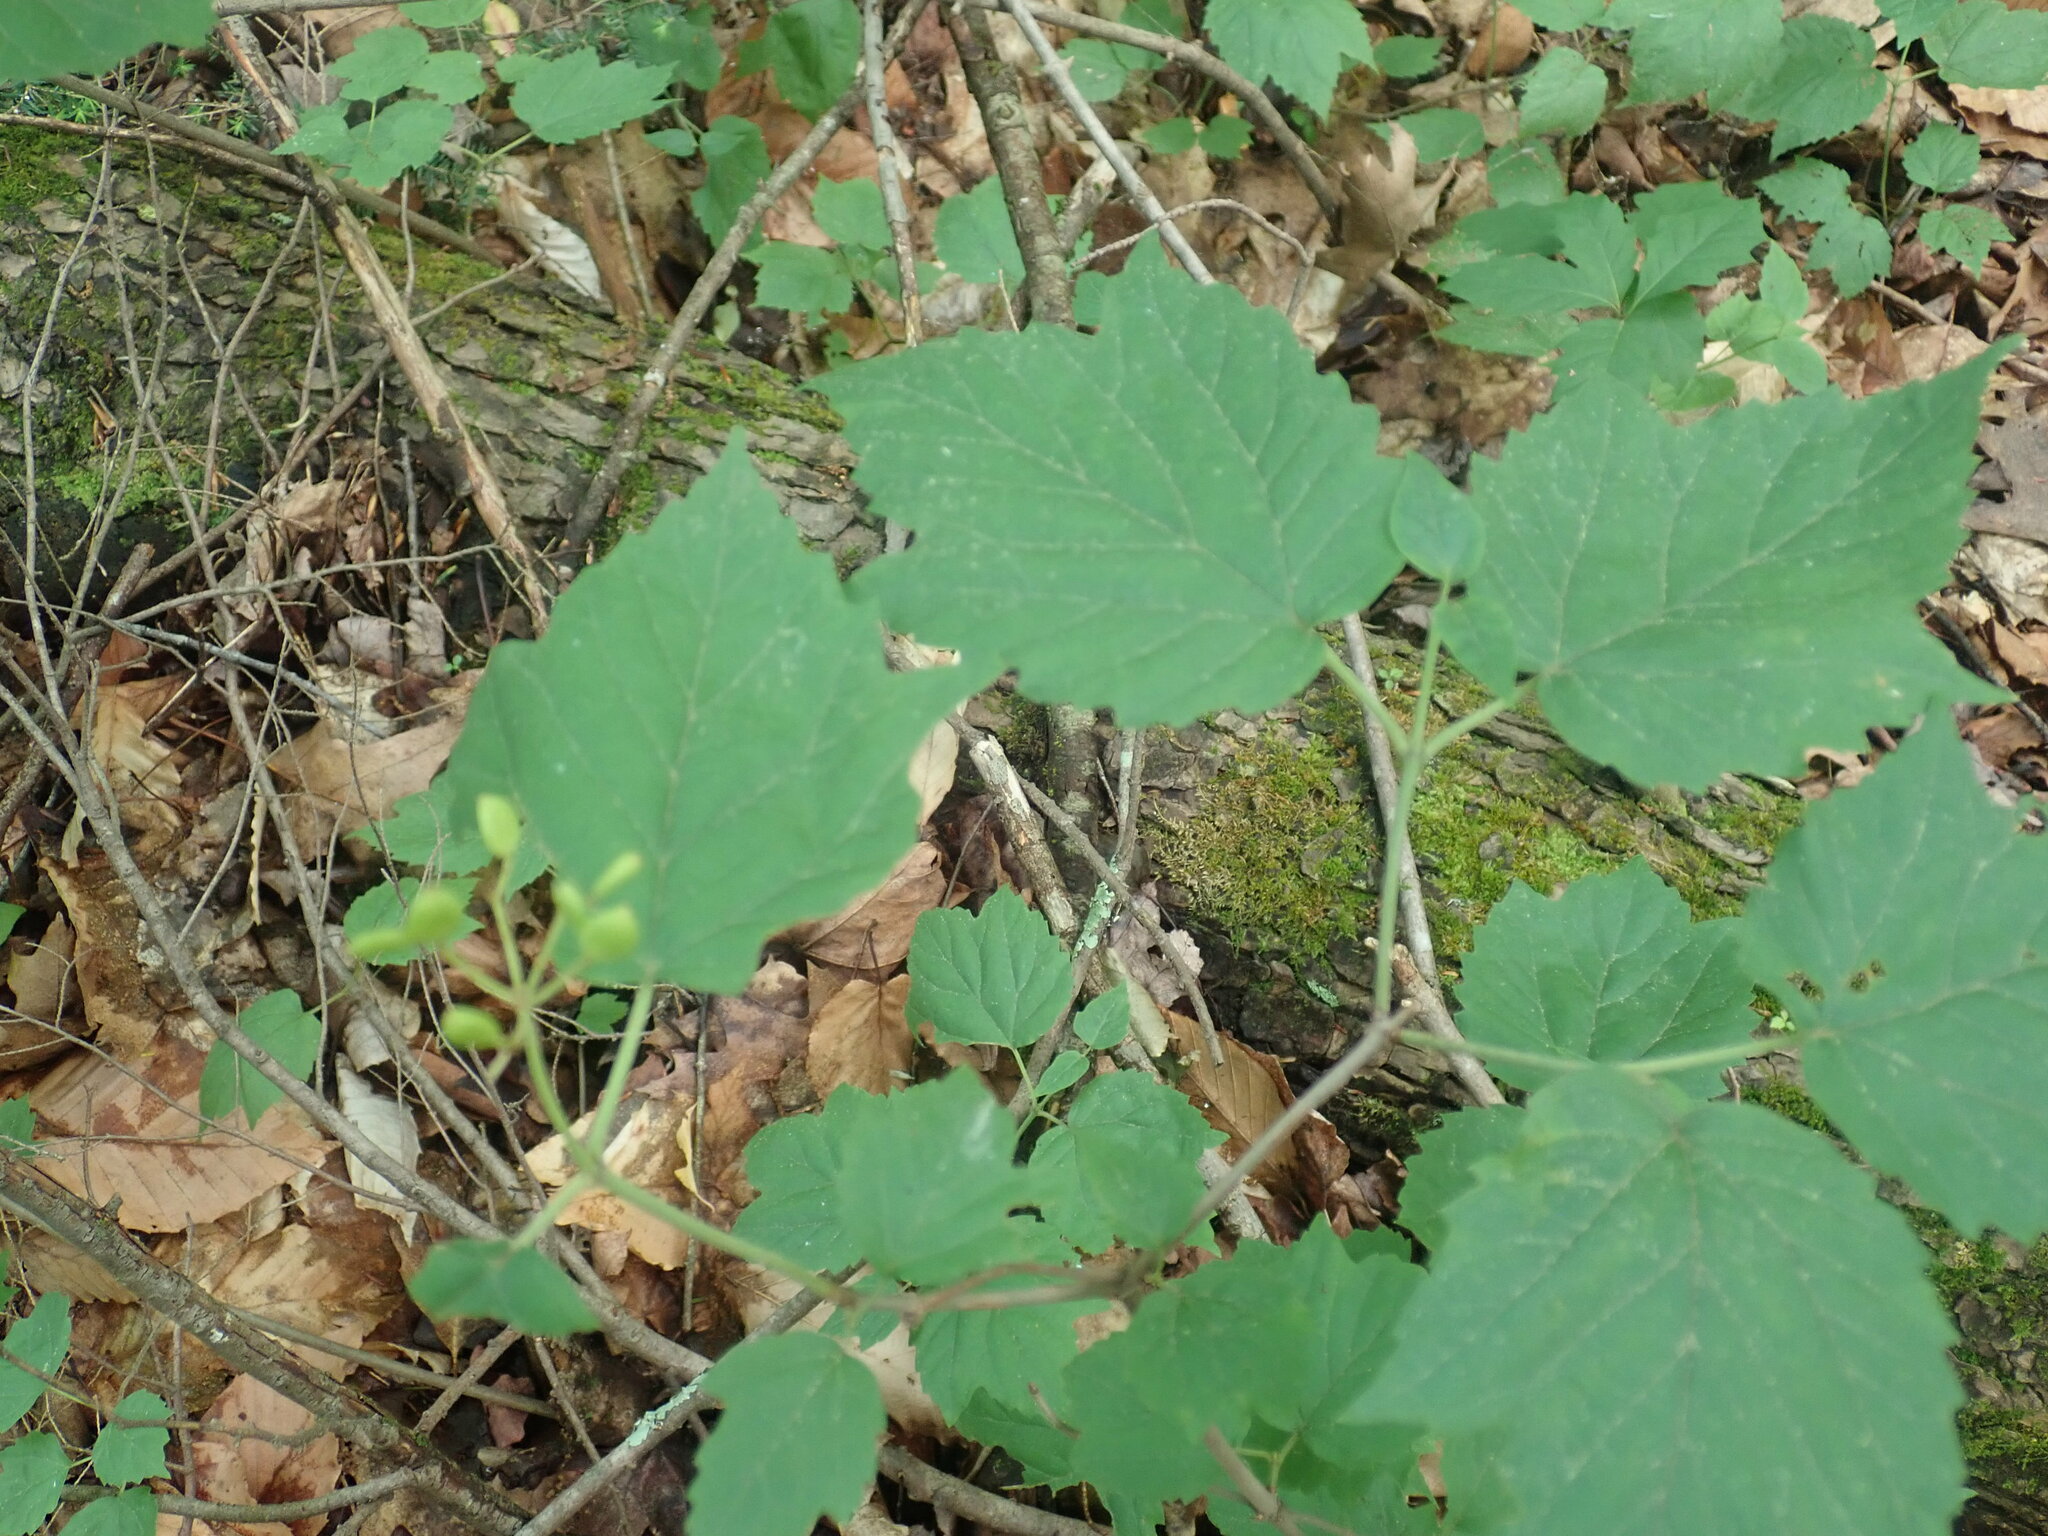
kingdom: Plantae
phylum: Tracheophyta
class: Magnoliopsida
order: Dipsacales
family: Viburnaceae
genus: Viburnum
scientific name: Viburnum acerifolium
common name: Dockmackie
